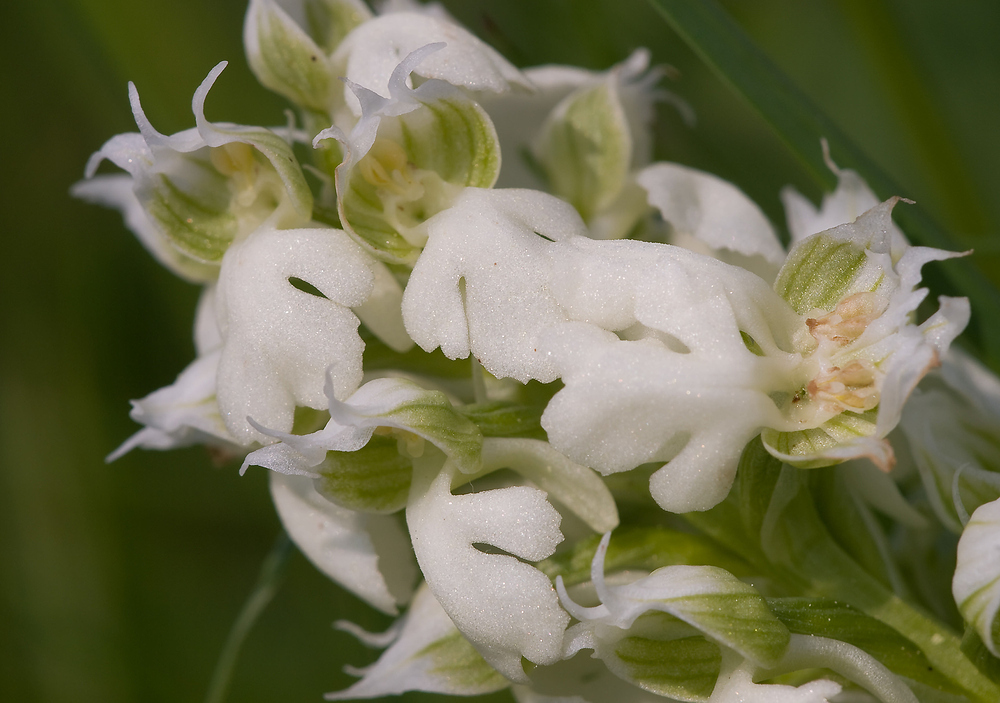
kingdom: Plantae
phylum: Tracheophyta
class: Liliopsida
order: Asparagales
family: Orchidaceae
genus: Neotinea
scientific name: Neotinea lactea
